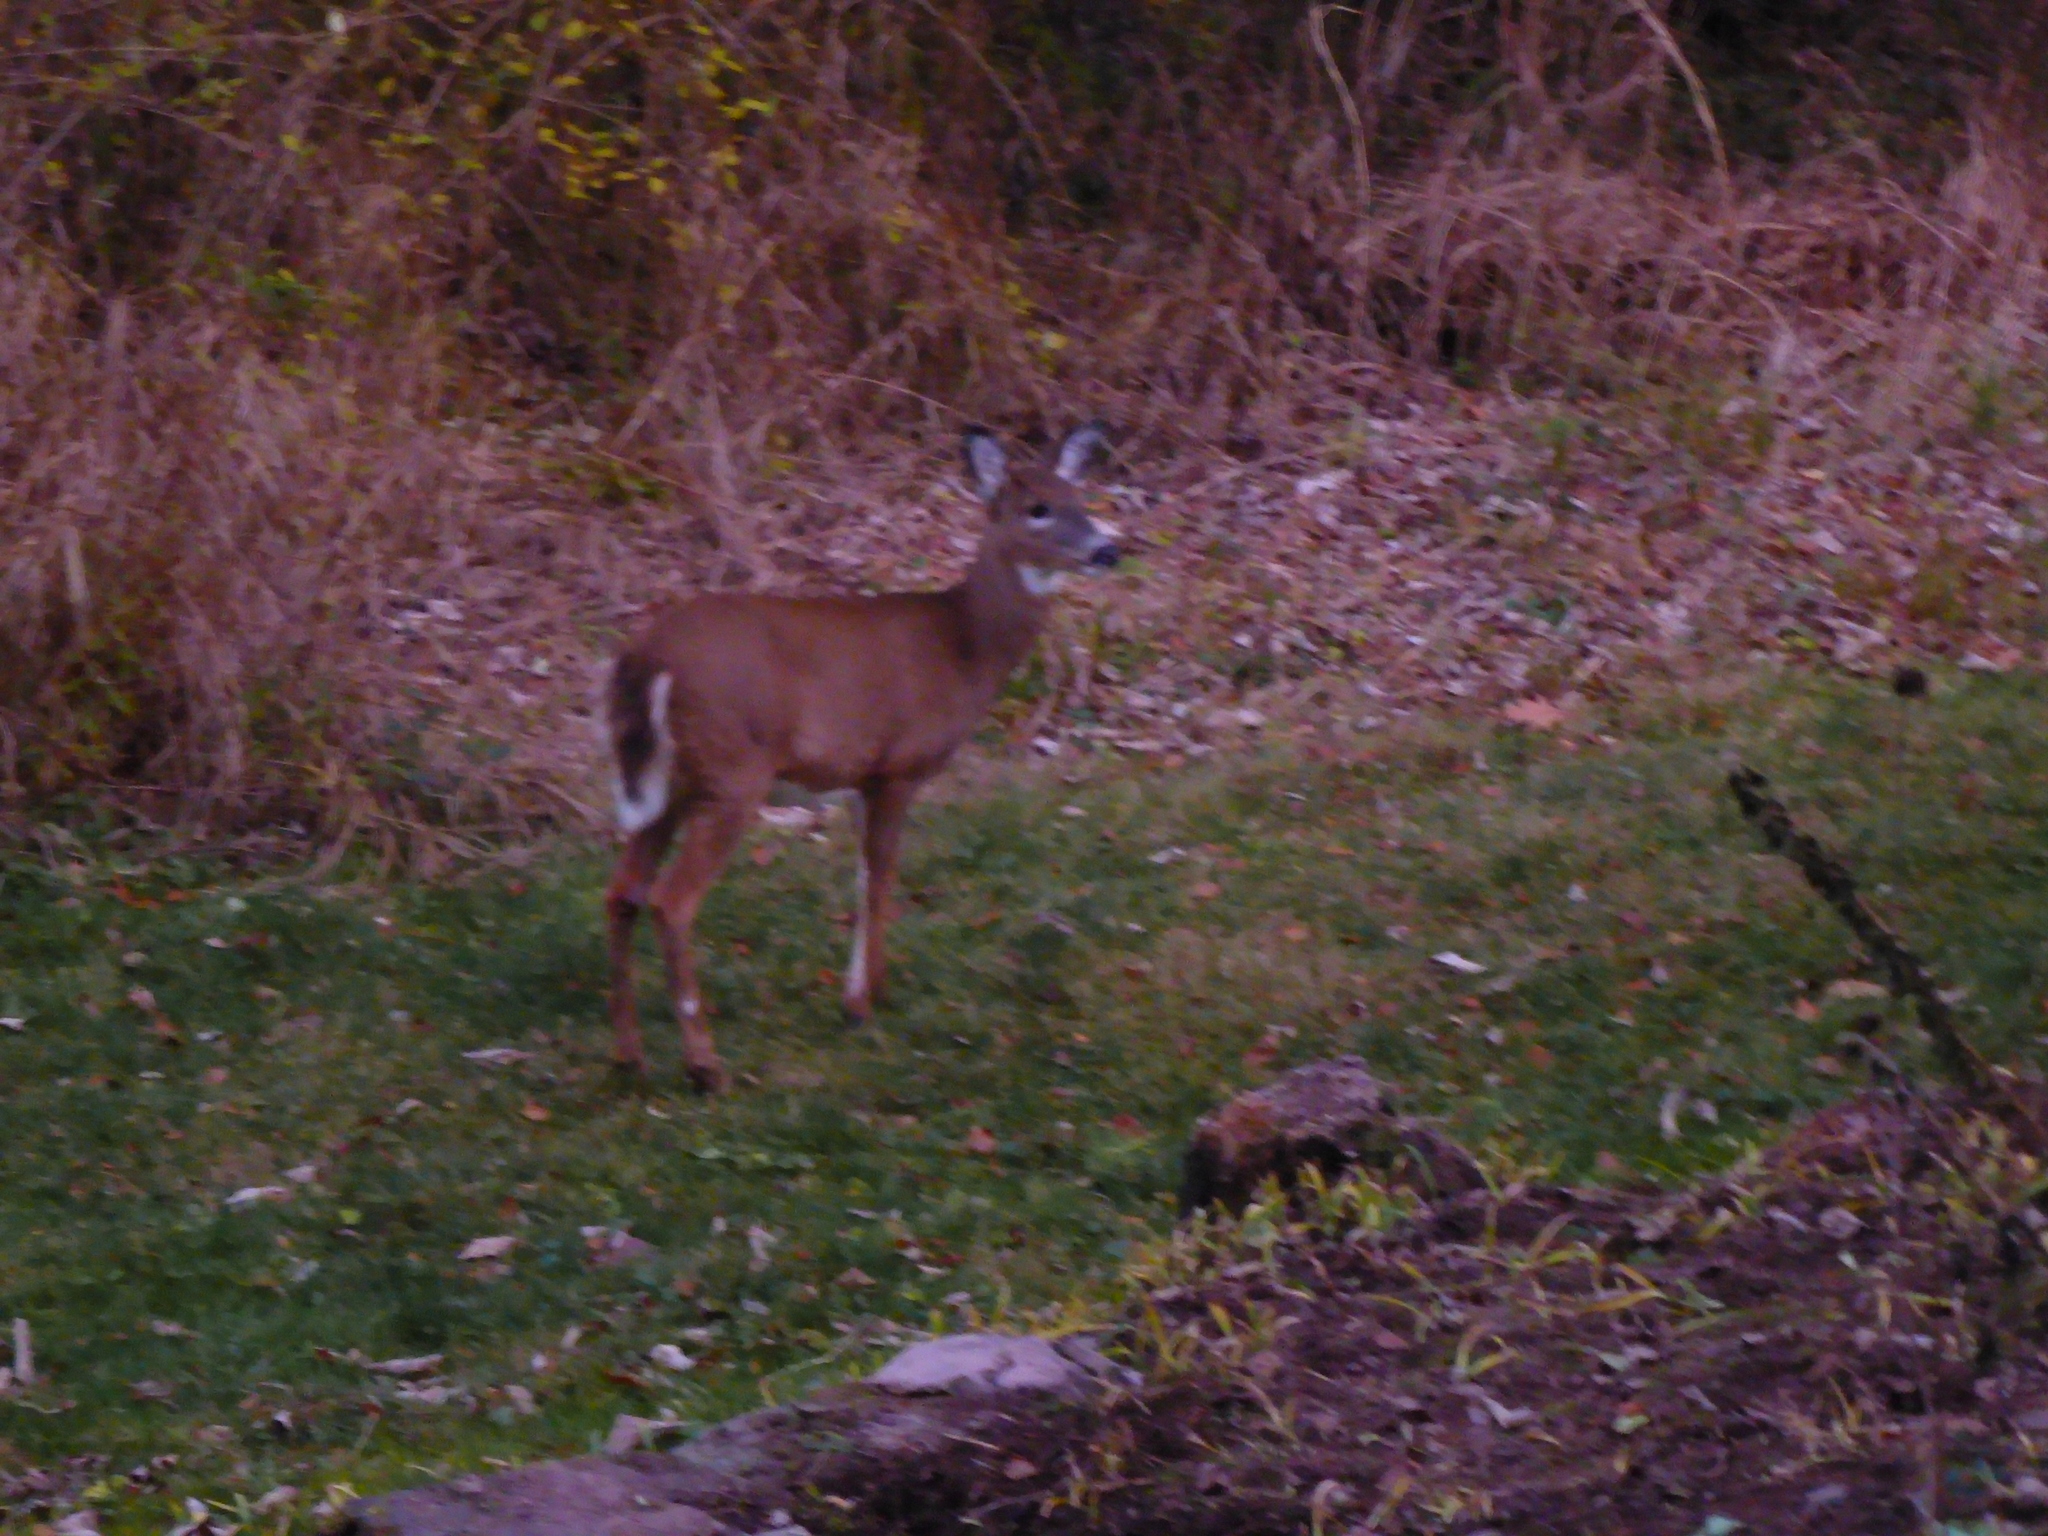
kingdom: Animalia
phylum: Chordata
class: Mammalia
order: Artiodactyla
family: Cervidae
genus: Odocoileus
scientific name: Odocoileus virginianus
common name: White-tailed deer
